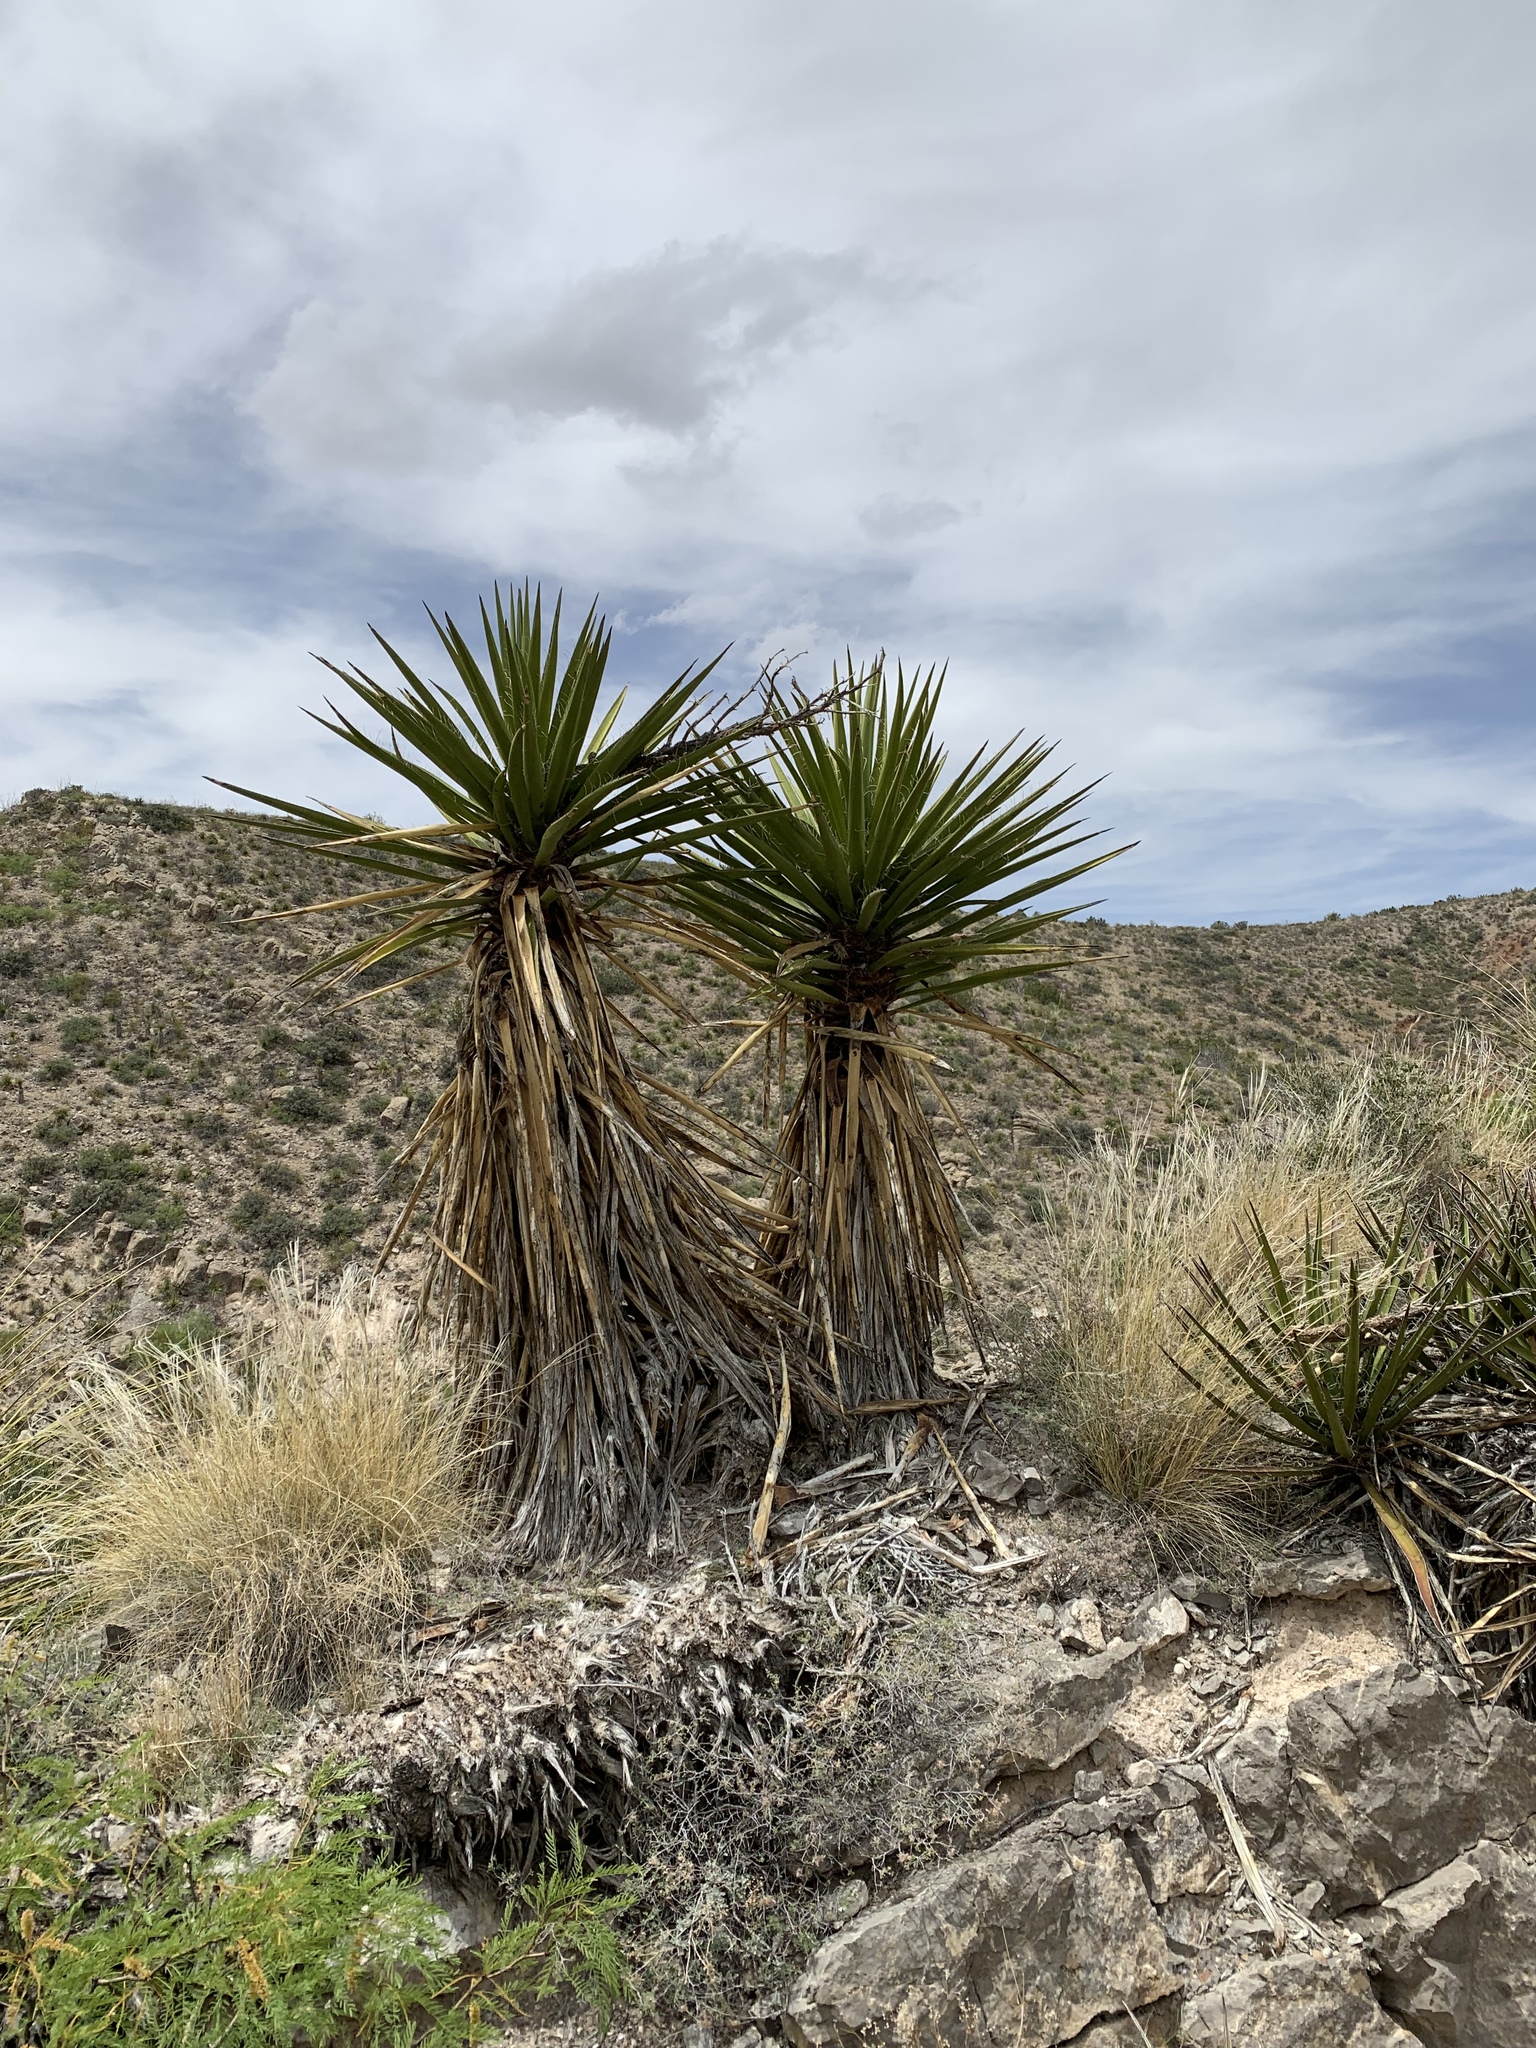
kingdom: Plantae
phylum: Tracheophyta
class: Liliopsida
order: Asparagales
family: Asparagaceae
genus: Yucca
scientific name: Yucca treculiana
